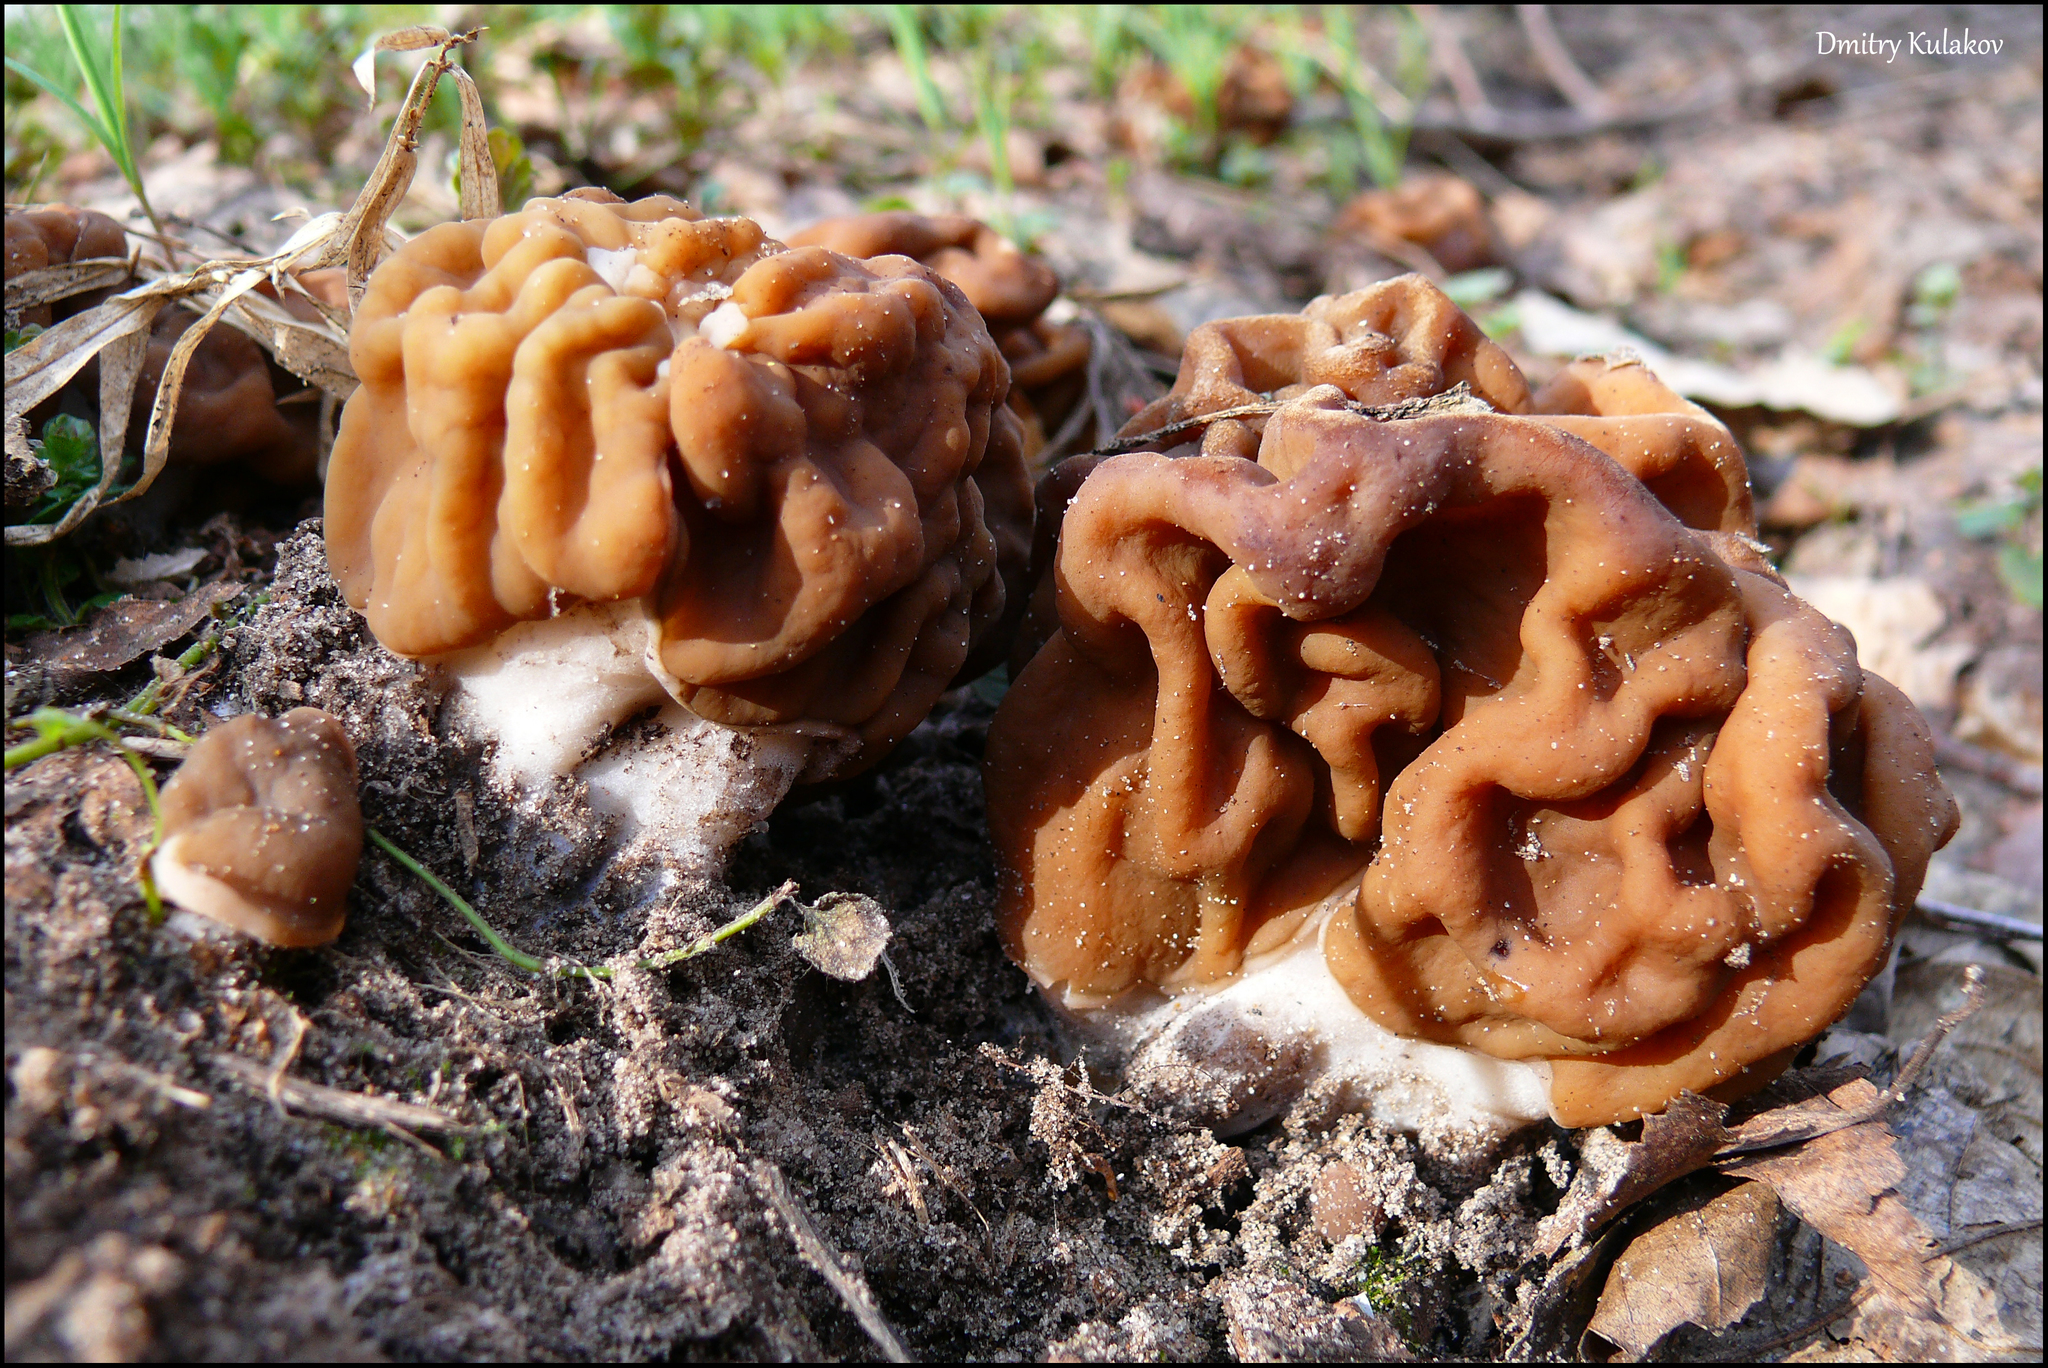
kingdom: Fungi
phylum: Ascomycota
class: Pezizomycetes
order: Pezizales
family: Discinaceae
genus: Gyromitra
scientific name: Gyromitra gigas
